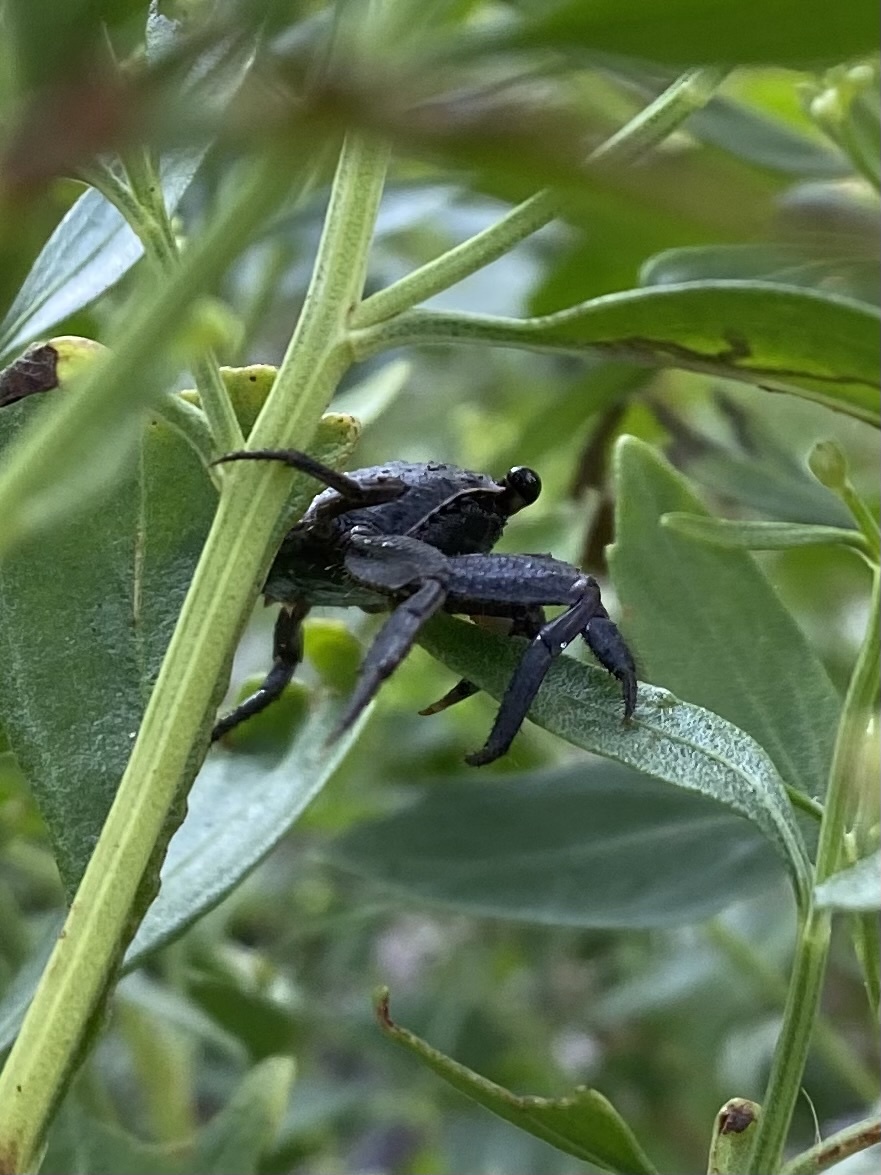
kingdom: Animalia
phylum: Arthropoda
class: Malacostraca
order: Decapoda
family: Sesarmidae
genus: Armases
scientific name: Armases cinereum
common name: Squareback marsh crab
